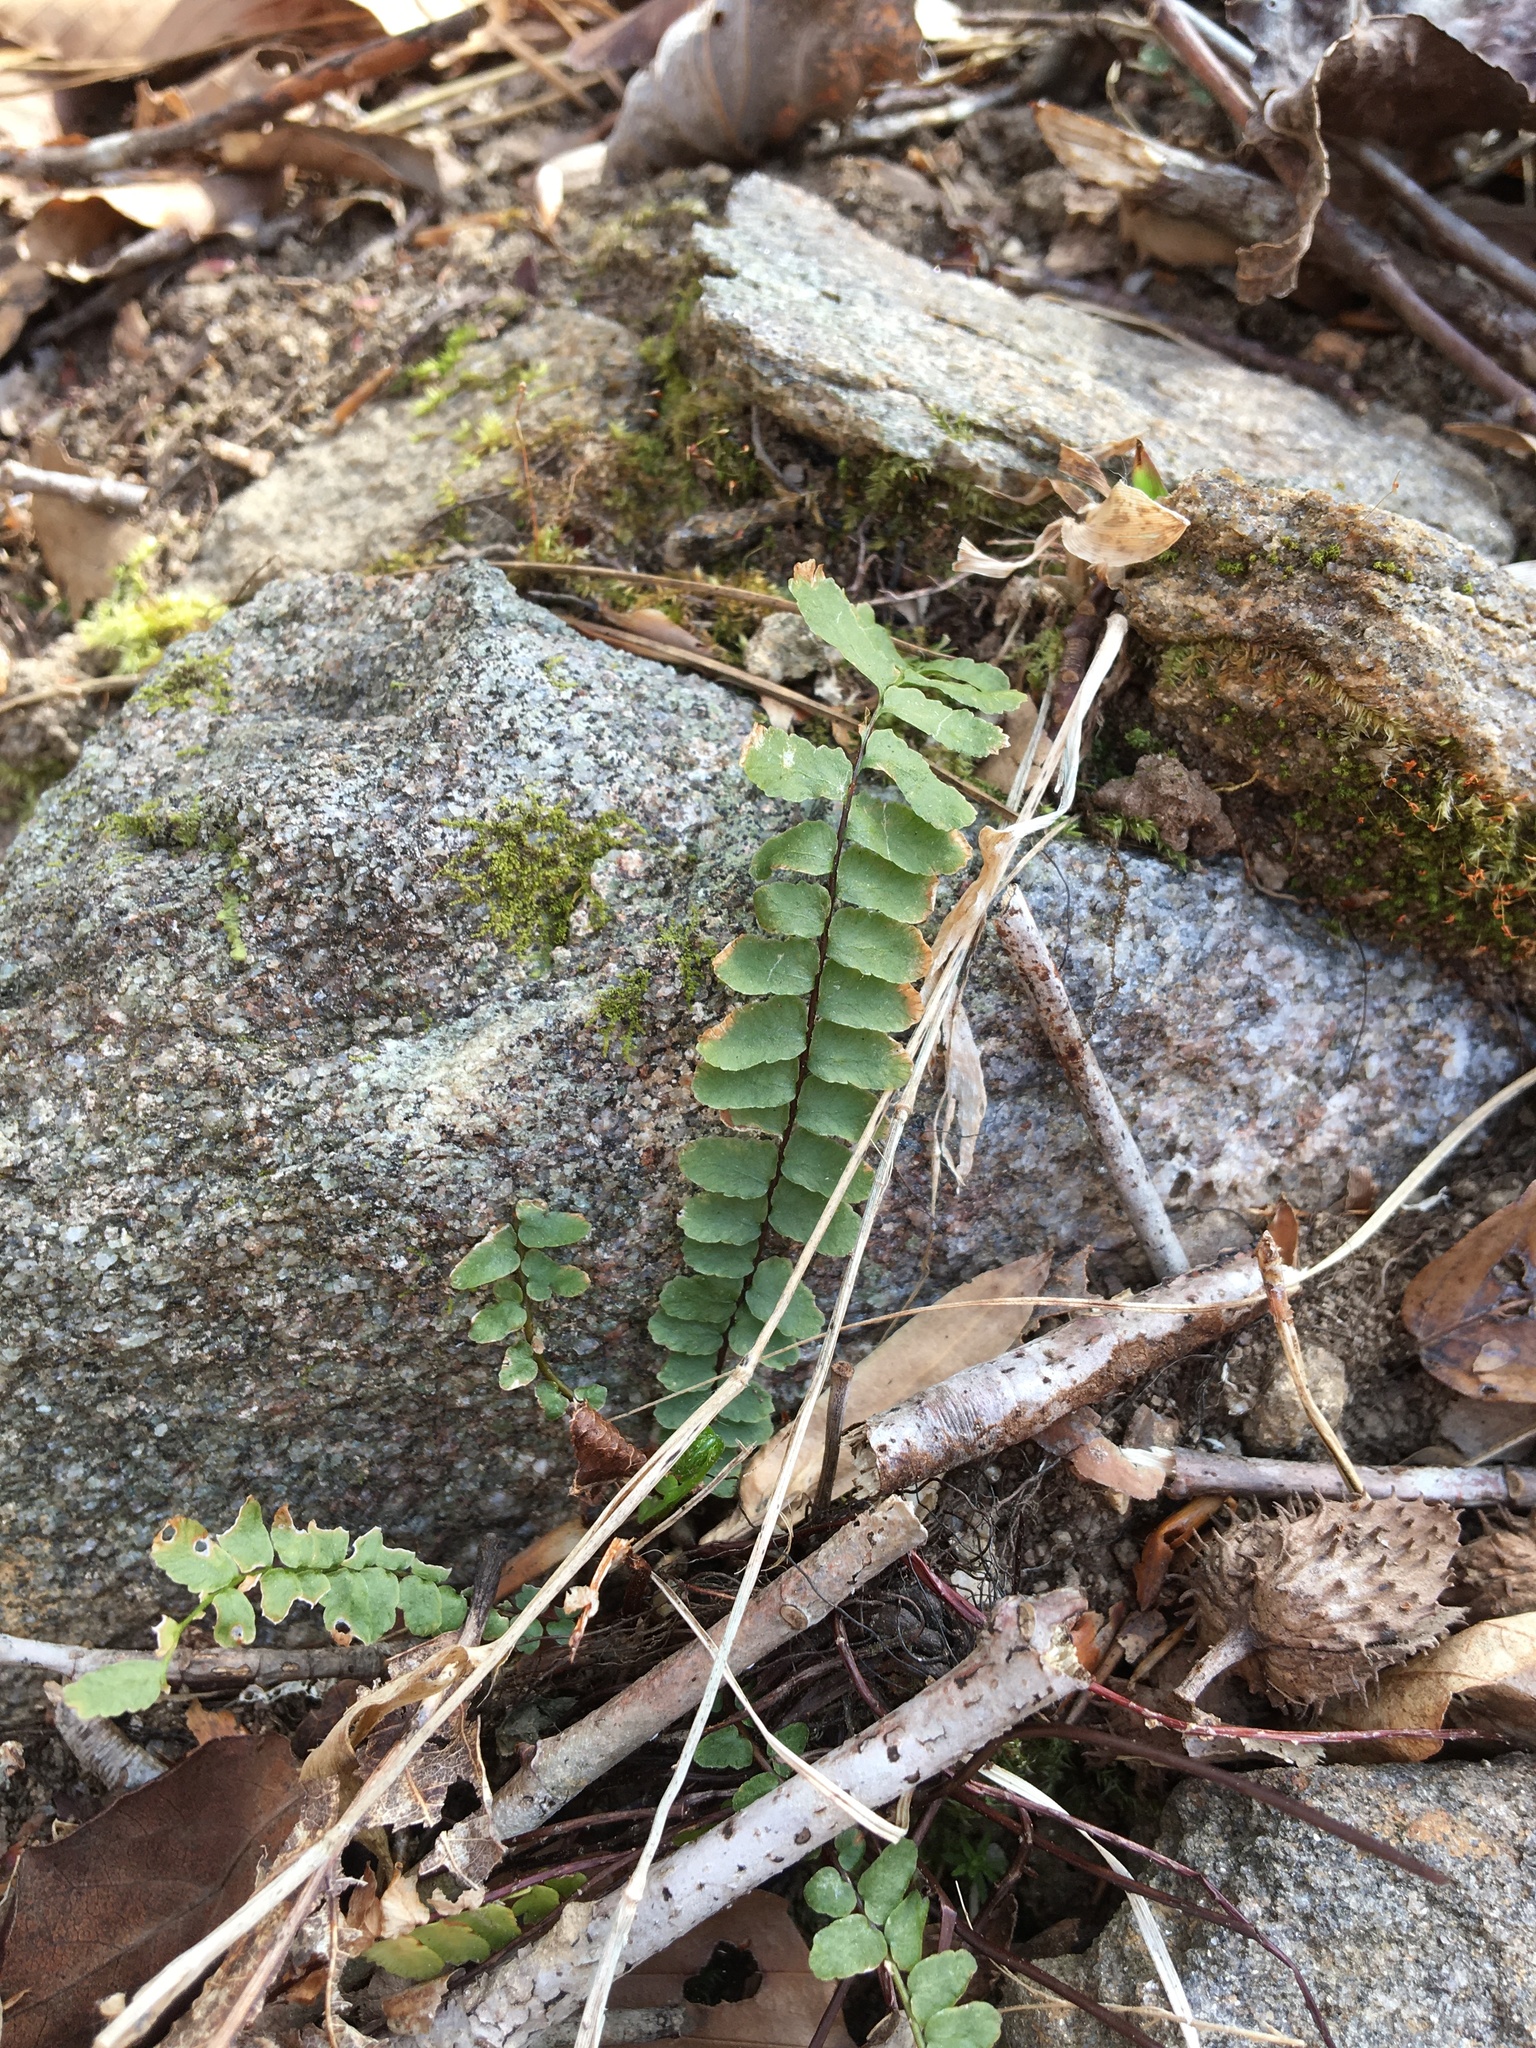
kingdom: Plantae
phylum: Tracheophyta
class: Polypodiopsida
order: Polypodiales
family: Aspleniaceae
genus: Asplenium
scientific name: Asplenium platyneuron
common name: Ebony spleenwort
